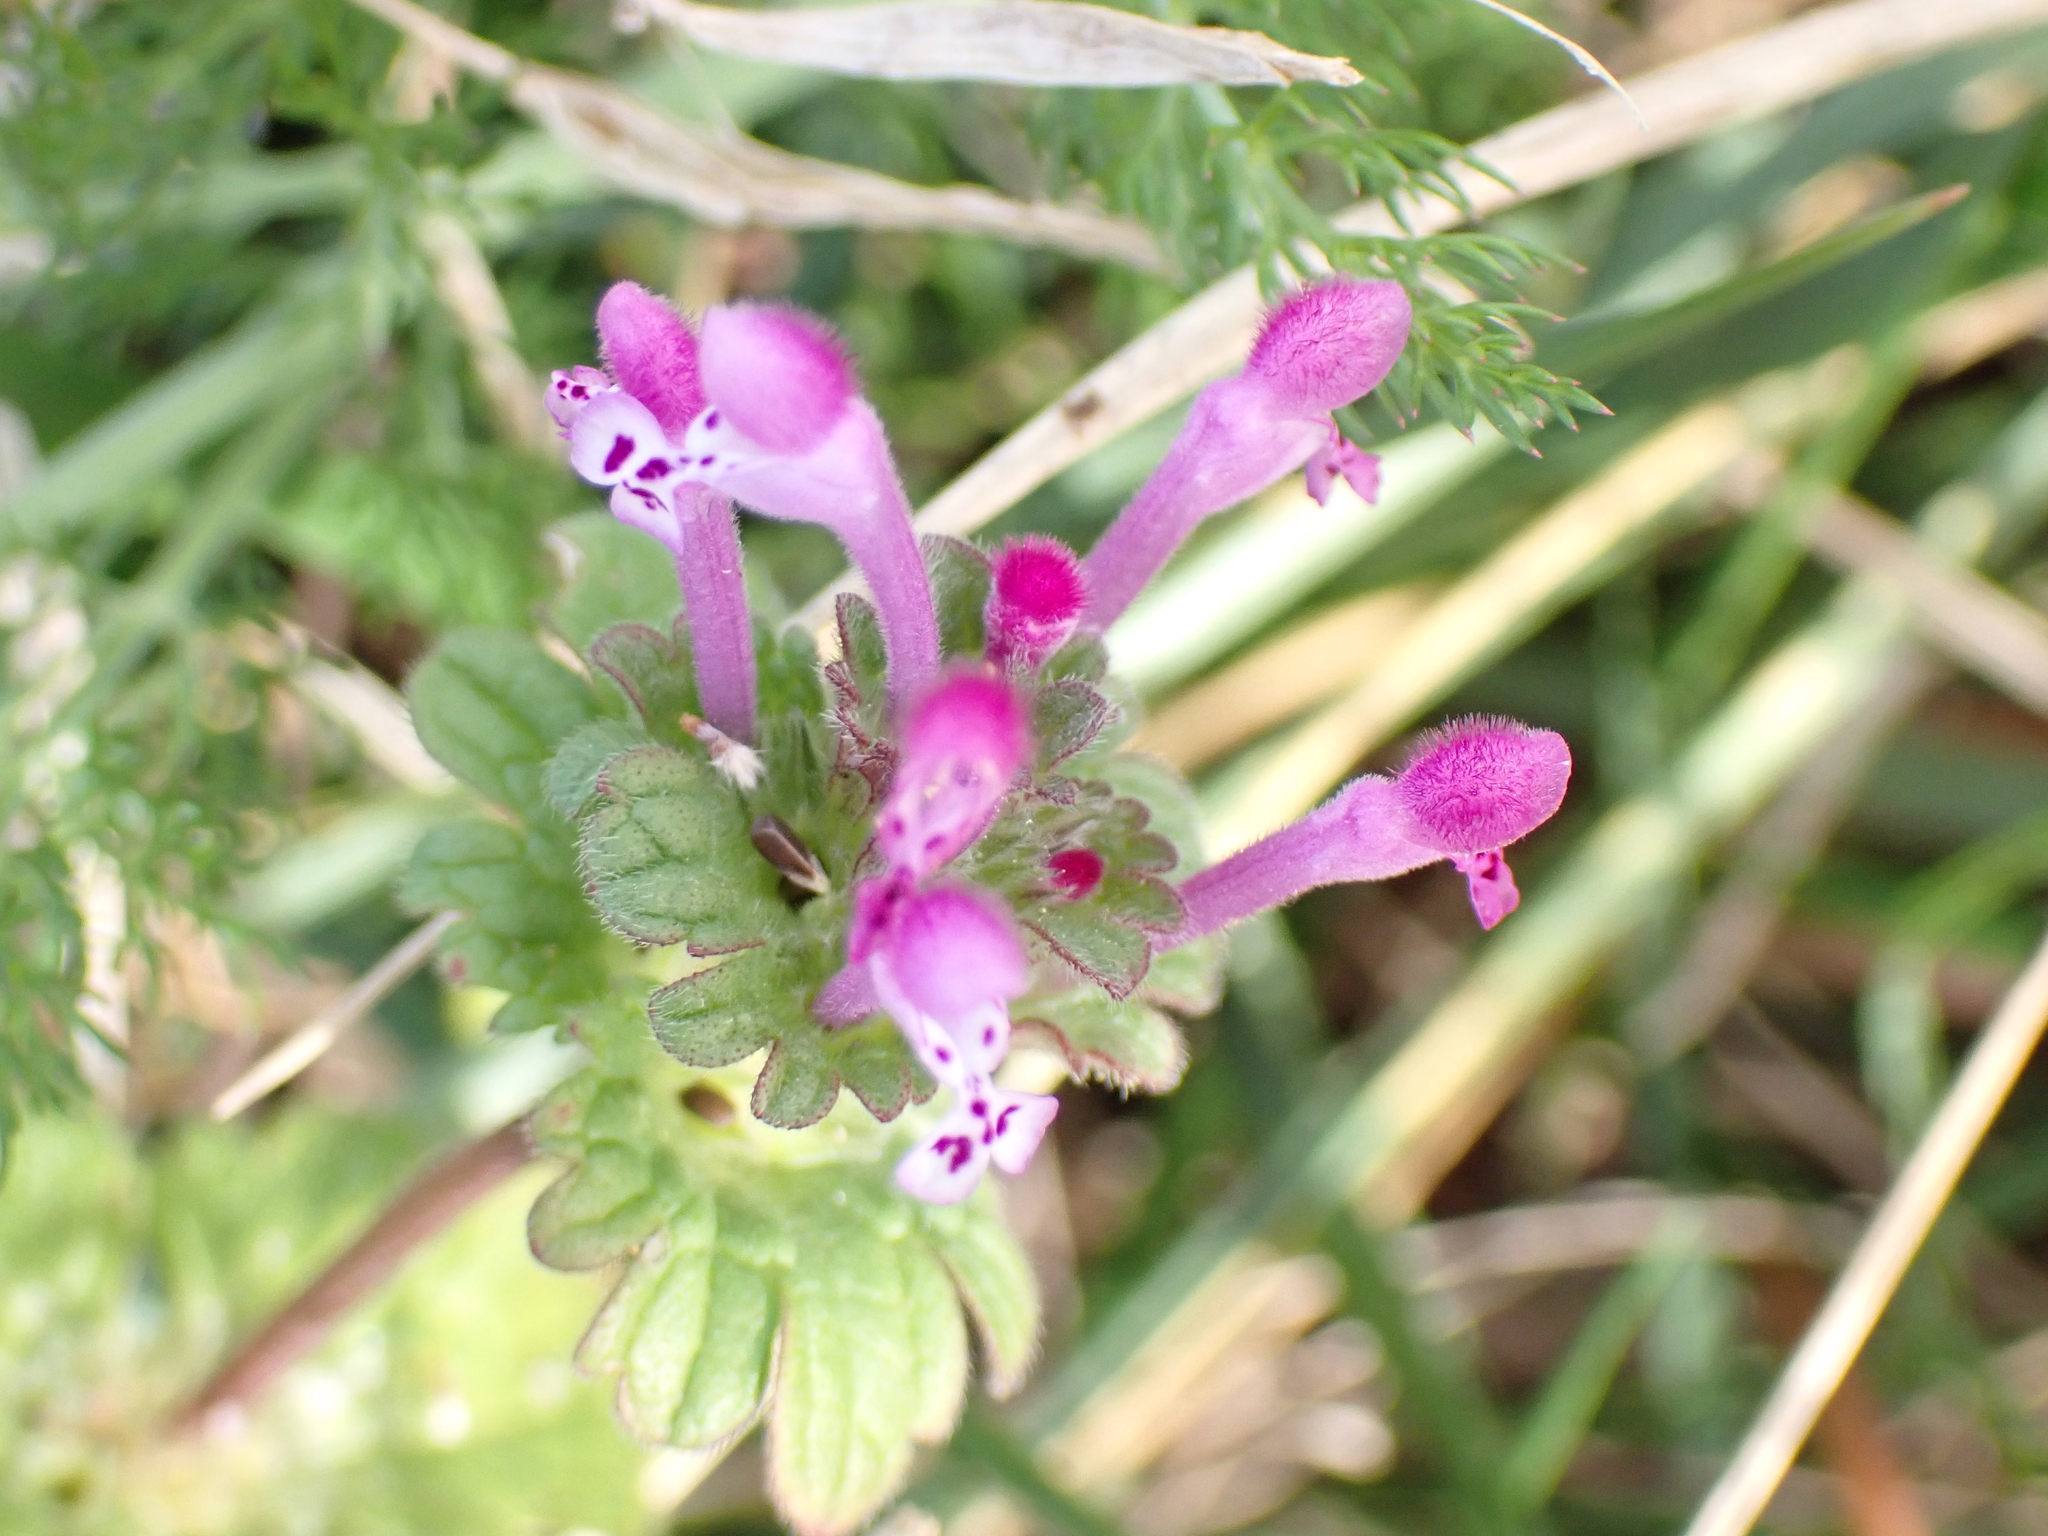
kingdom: Plantae
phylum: Tracheophyta
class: Magnoliopsida
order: Lamiales
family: Lamiaceae
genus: Lamium
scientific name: Lamium amplexicaule
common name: Henbit dead-nettle
